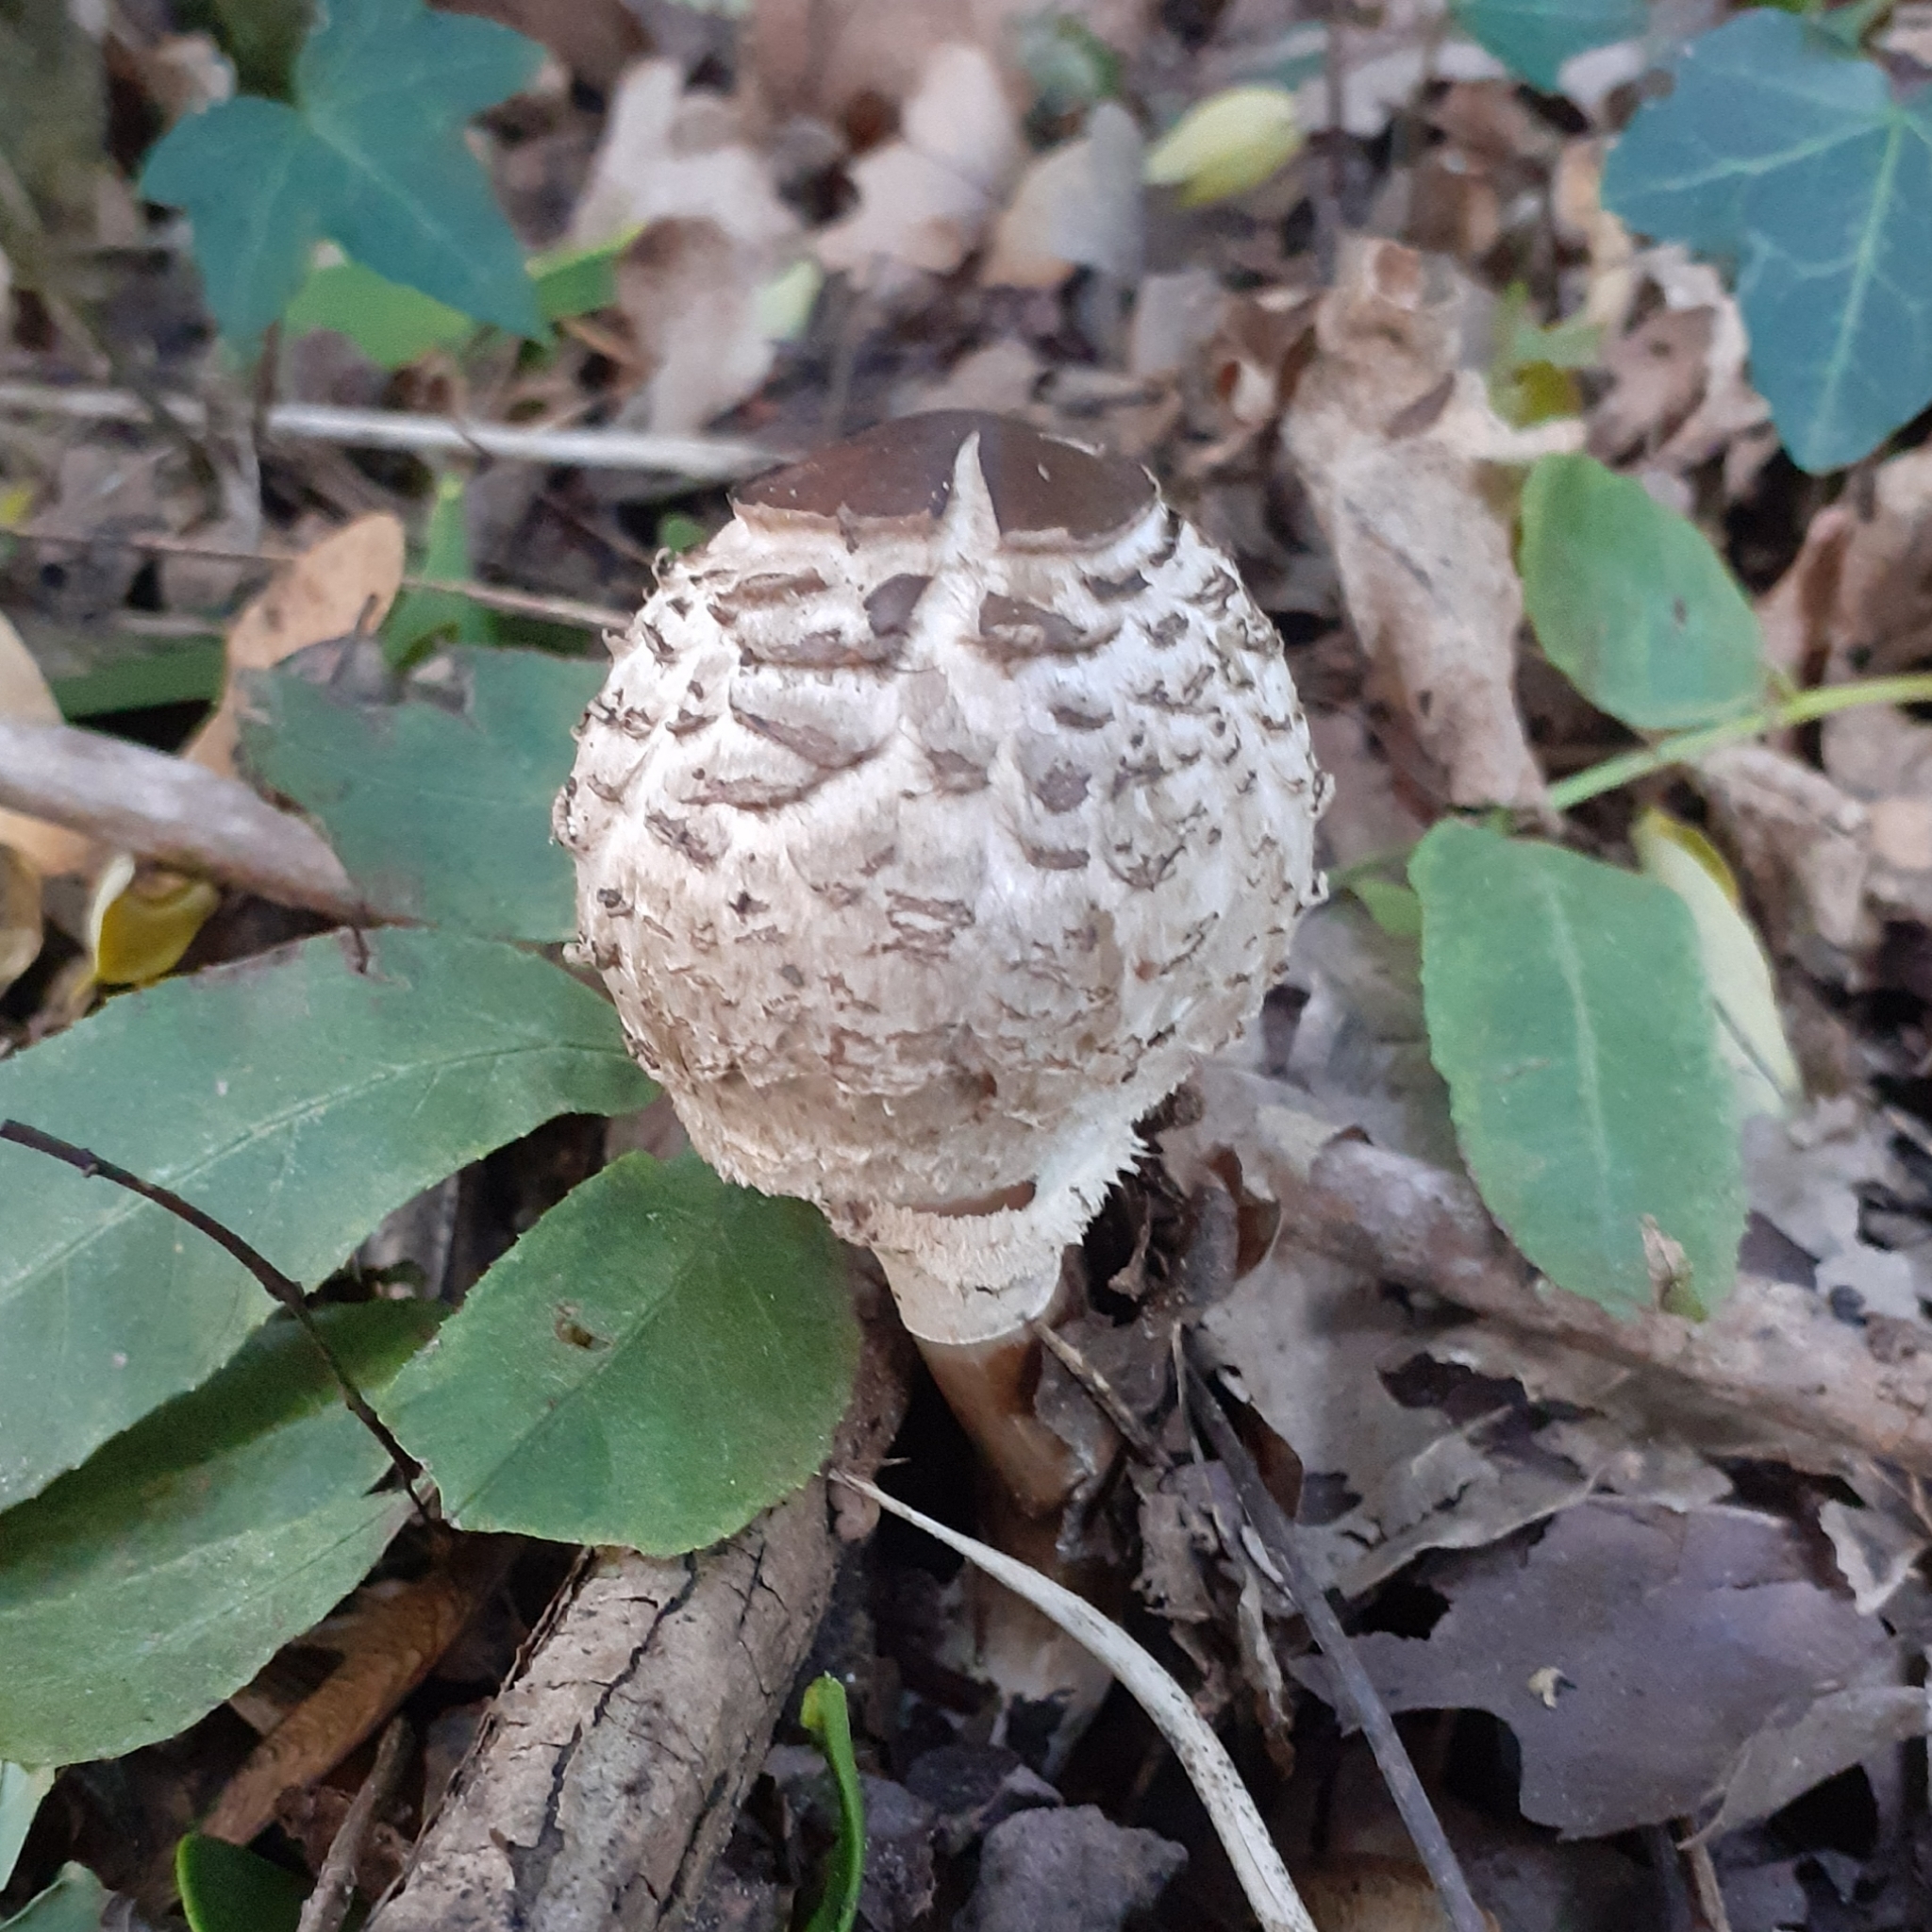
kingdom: Fungi
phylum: Basidiomycota
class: Agaricomycetes
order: Agaricales
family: Agaricaceae
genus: Macrolepiota
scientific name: Macrolepiota procera
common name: Parasol
